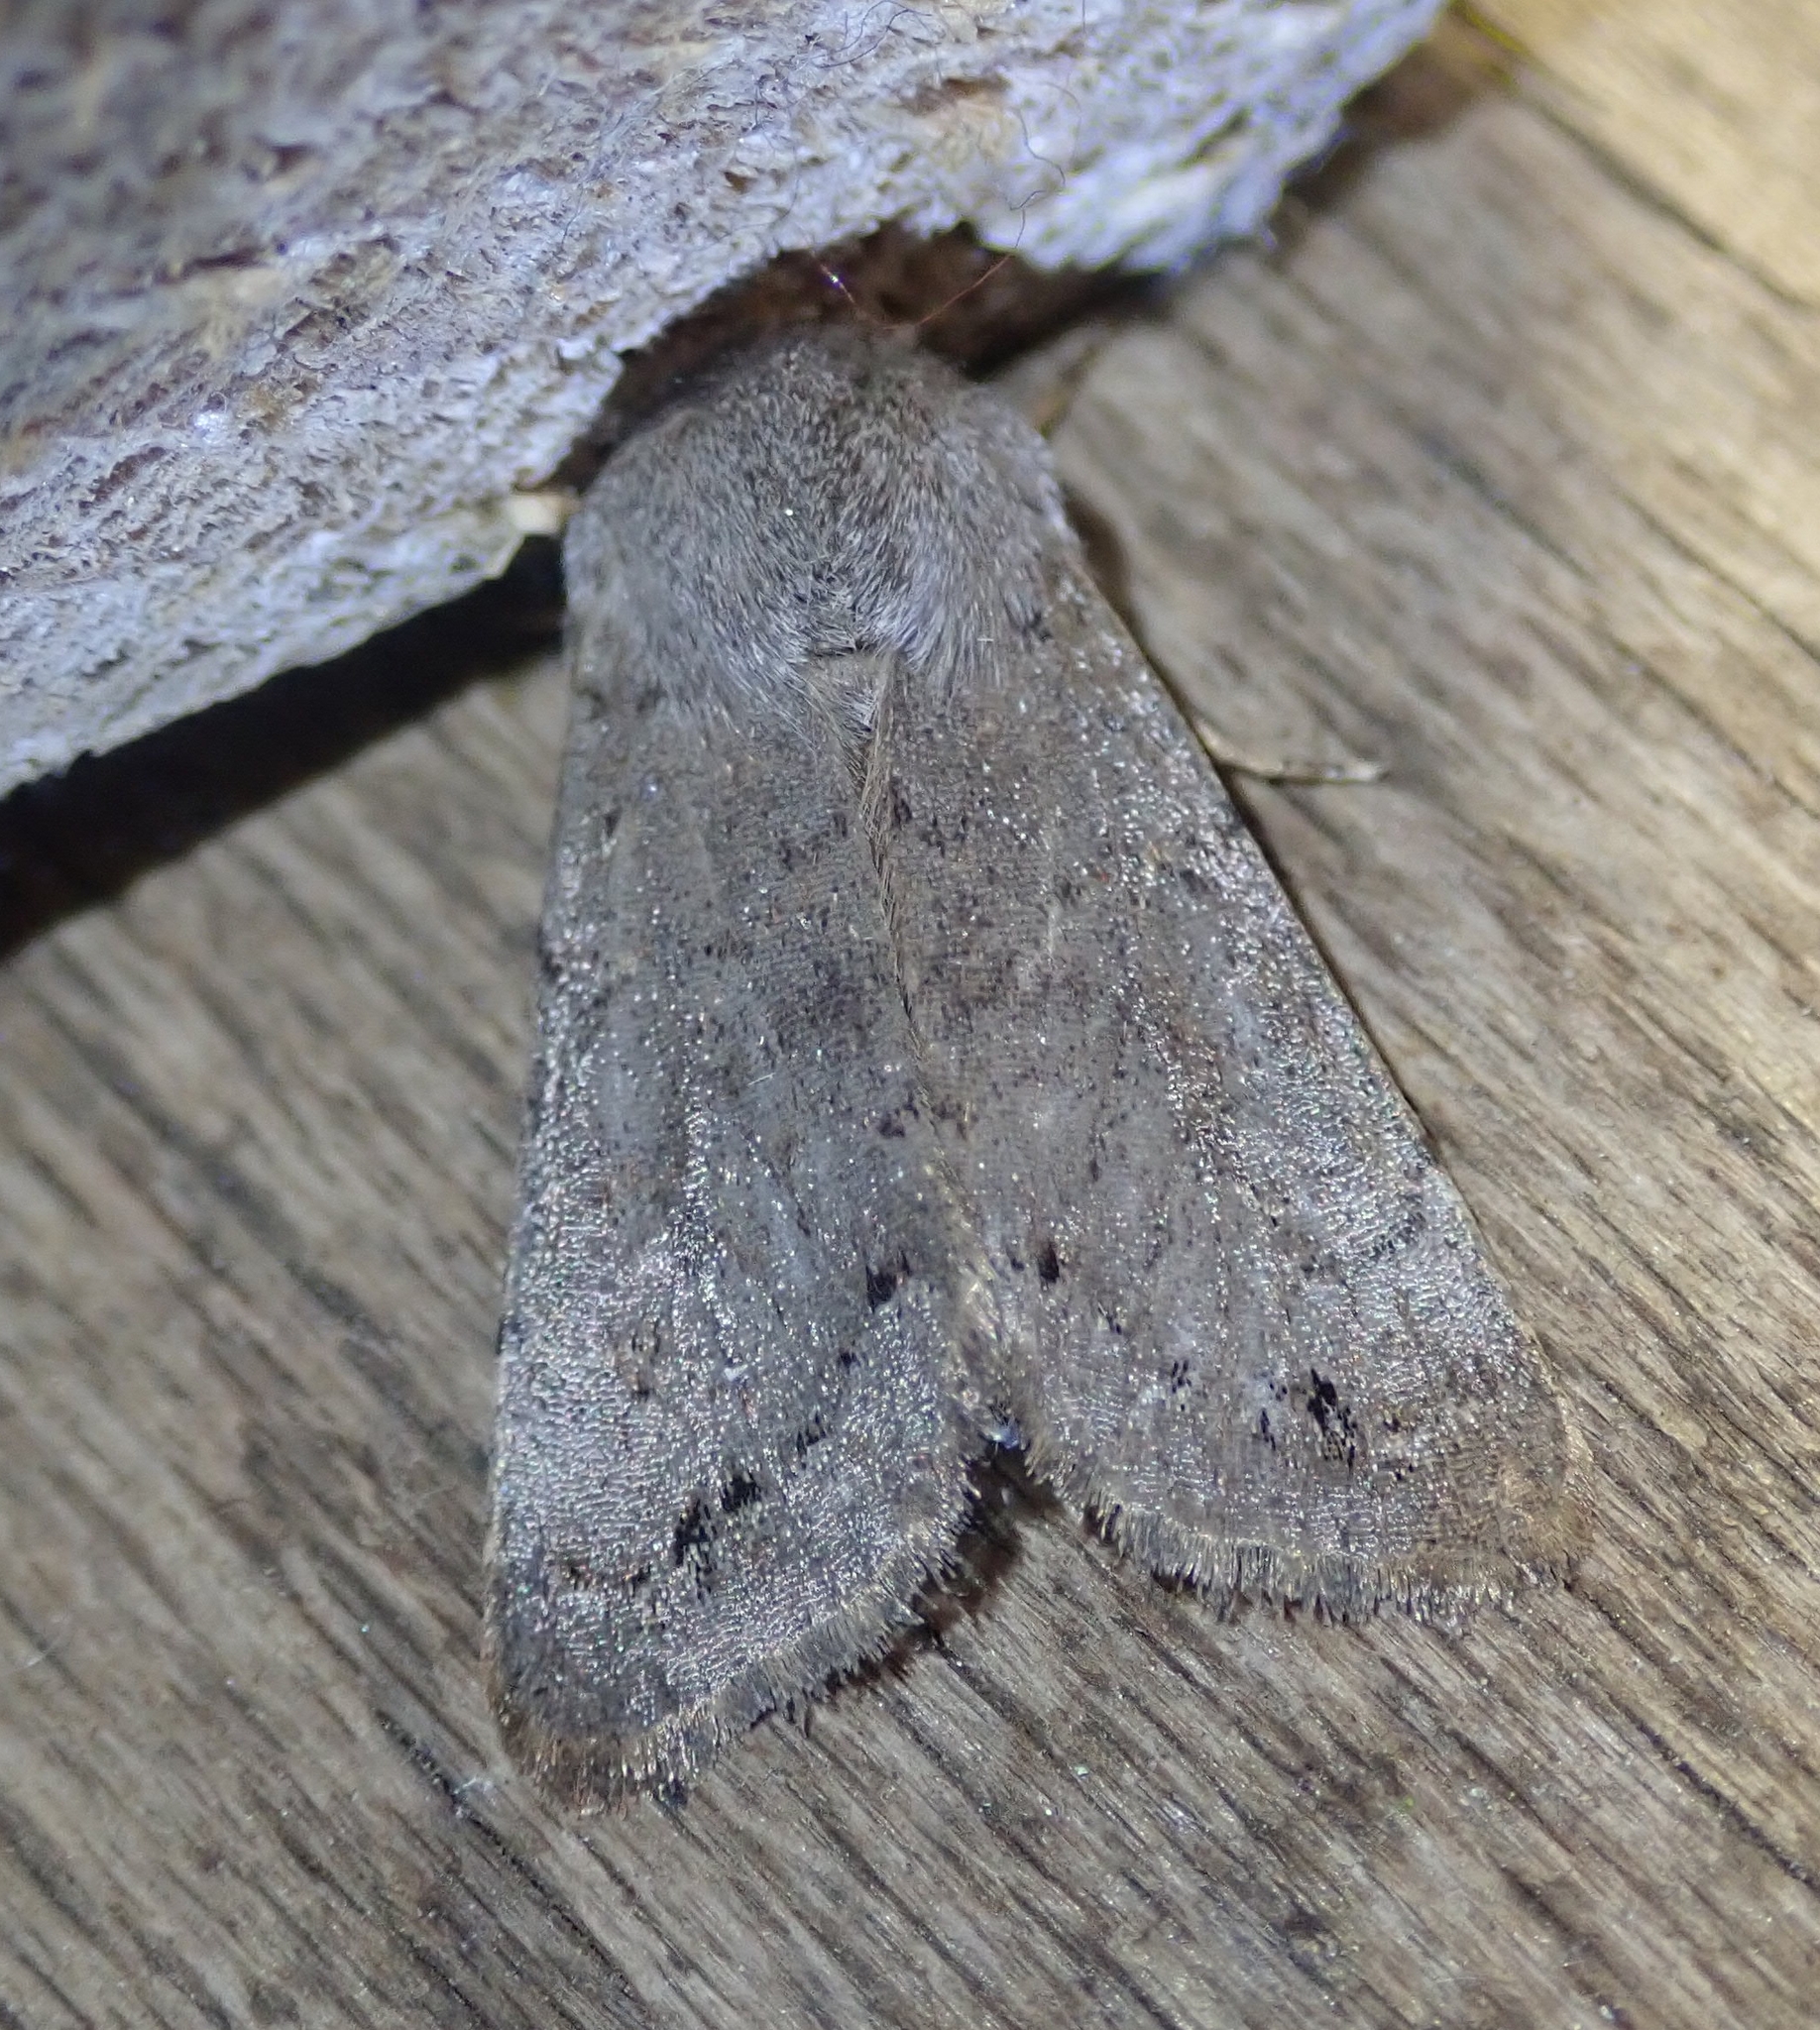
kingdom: Animalia
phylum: Arthropoda
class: Insecta
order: Lepidoptera
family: Noctuidae
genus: Orthosia
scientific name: Orthosia populeti
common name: Lead-coloured drab
